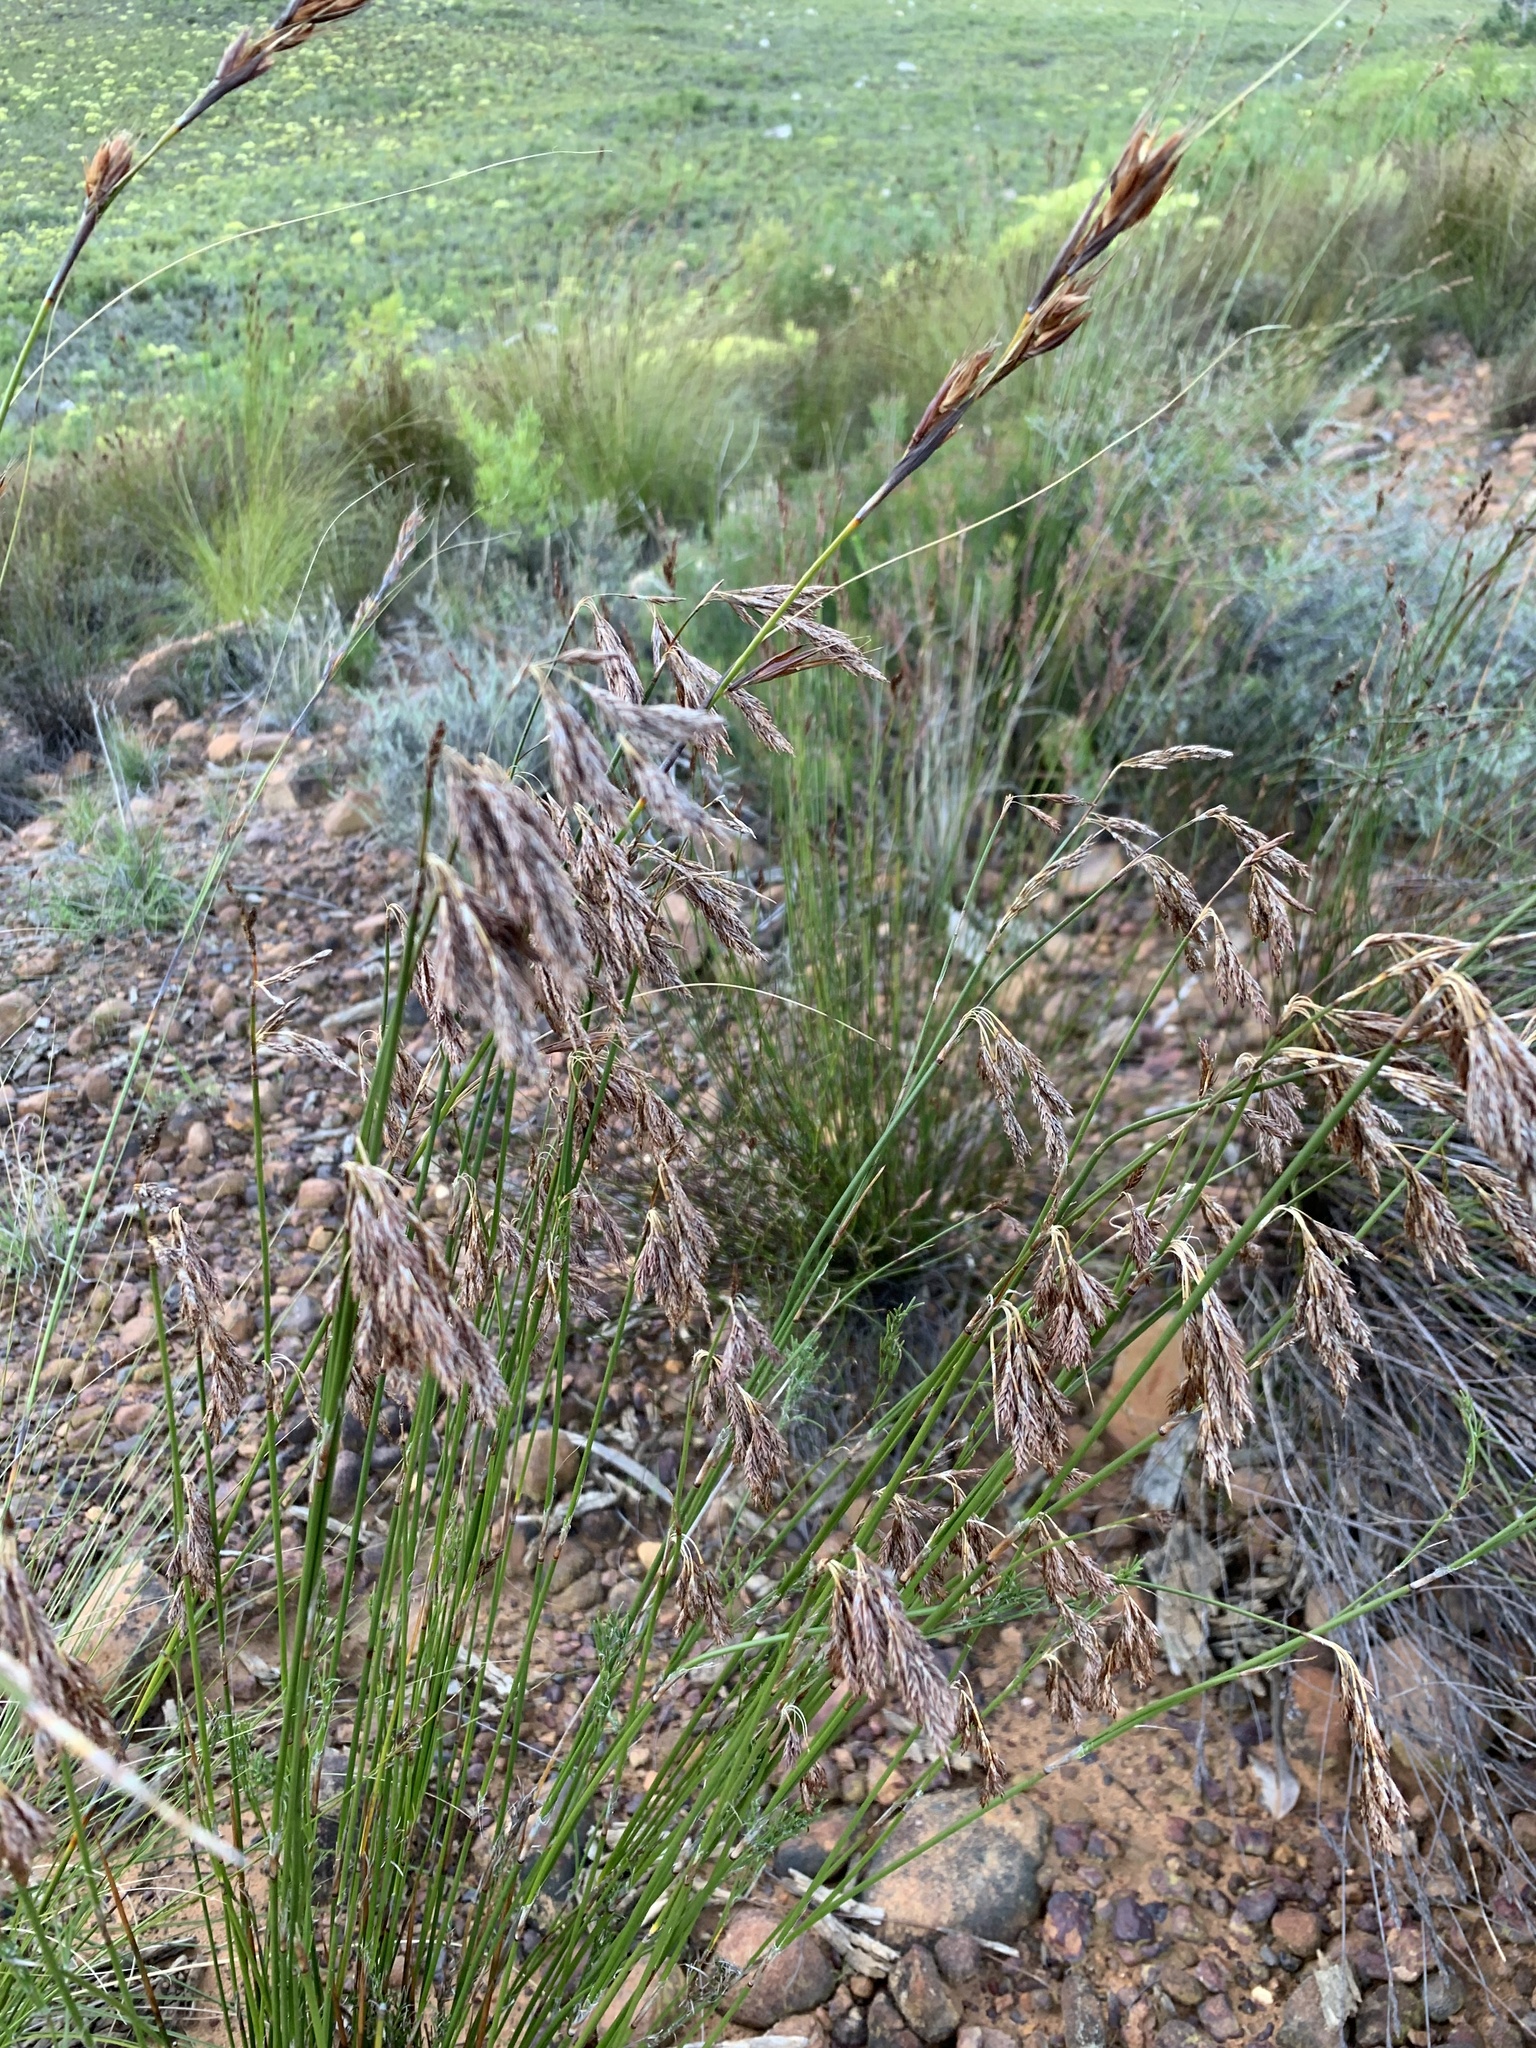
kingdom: Plantae
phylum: Tracheophyta
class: Liliopsida
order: Poales
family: Restionaceae
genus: Thamnochortus
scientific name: Thamnochortus lucens
